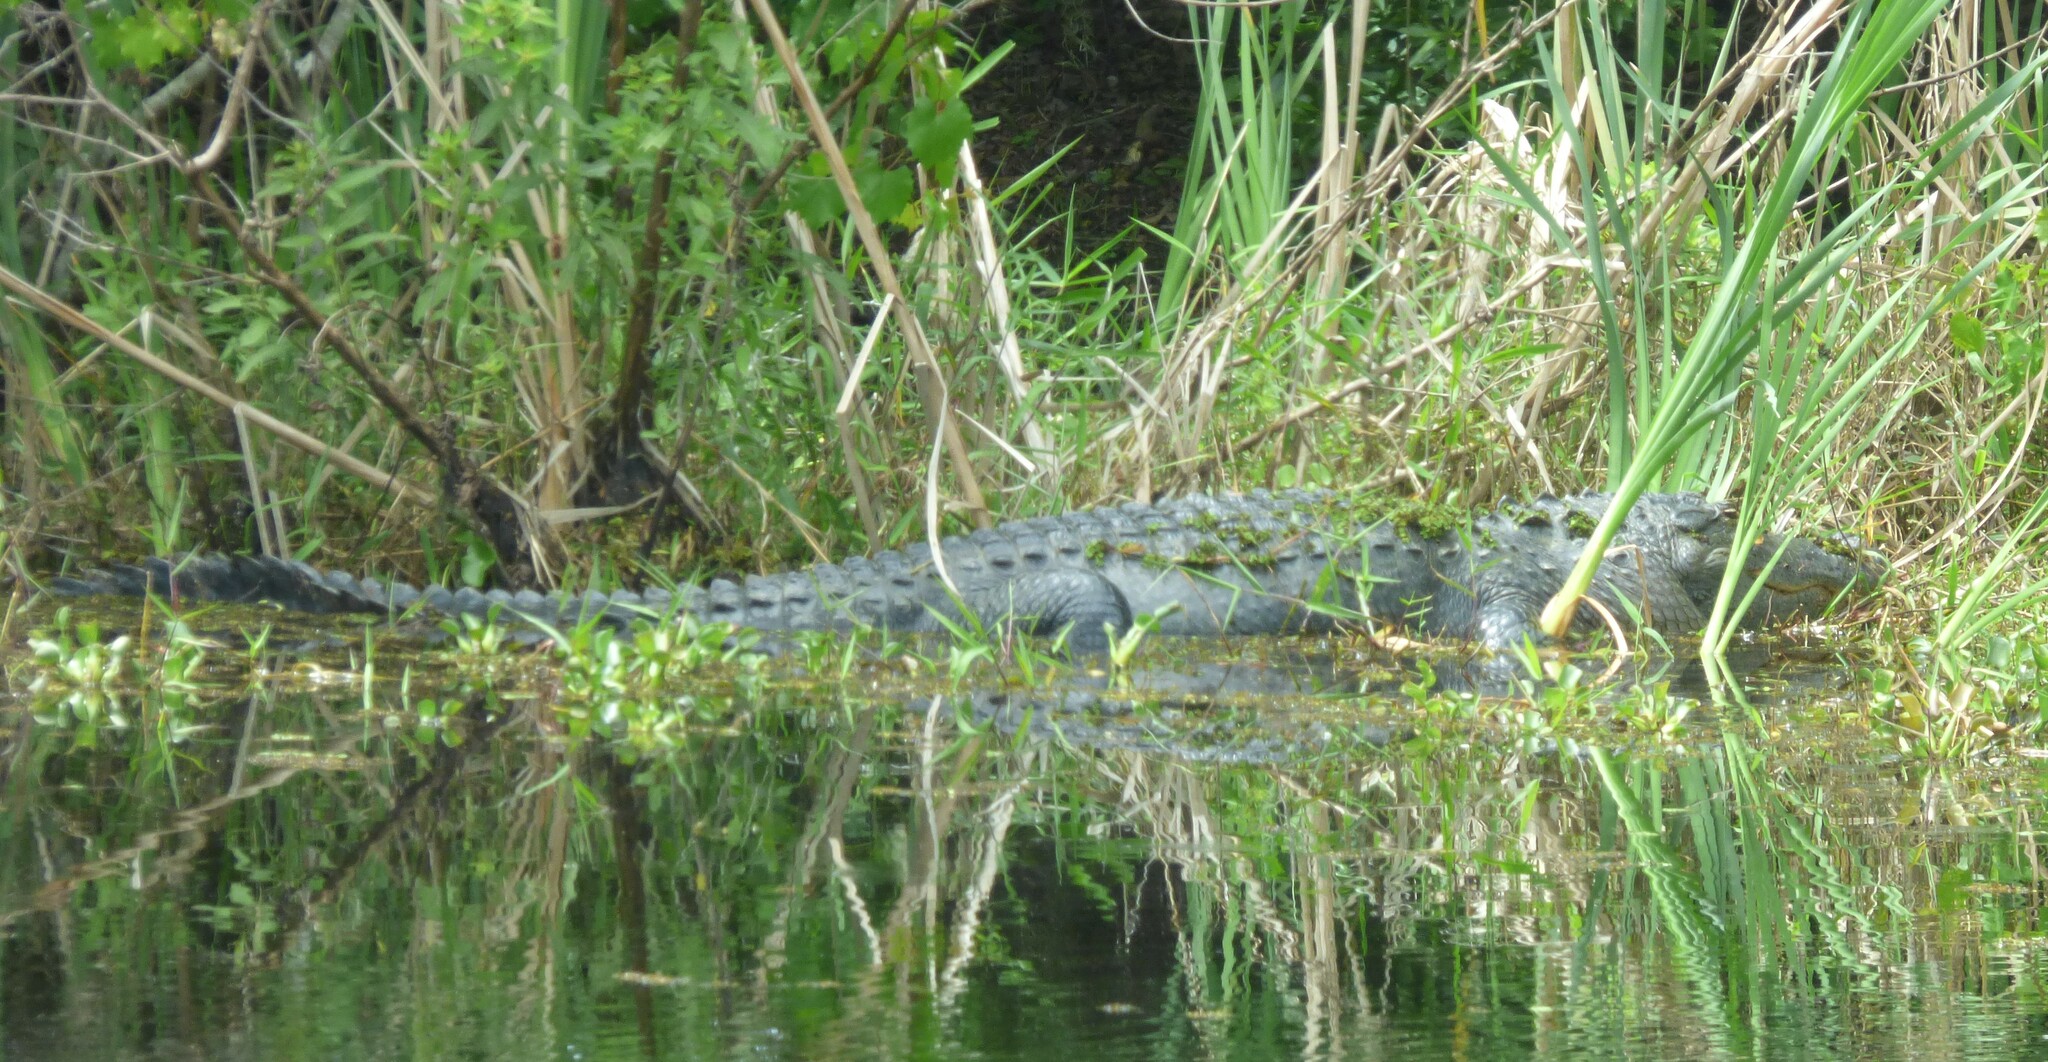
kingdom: Animalia
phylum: Chordata
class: Crocodylia
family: Alligatoridae
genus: Alligator
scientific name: Alligator mississippiensis
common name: American alligator
